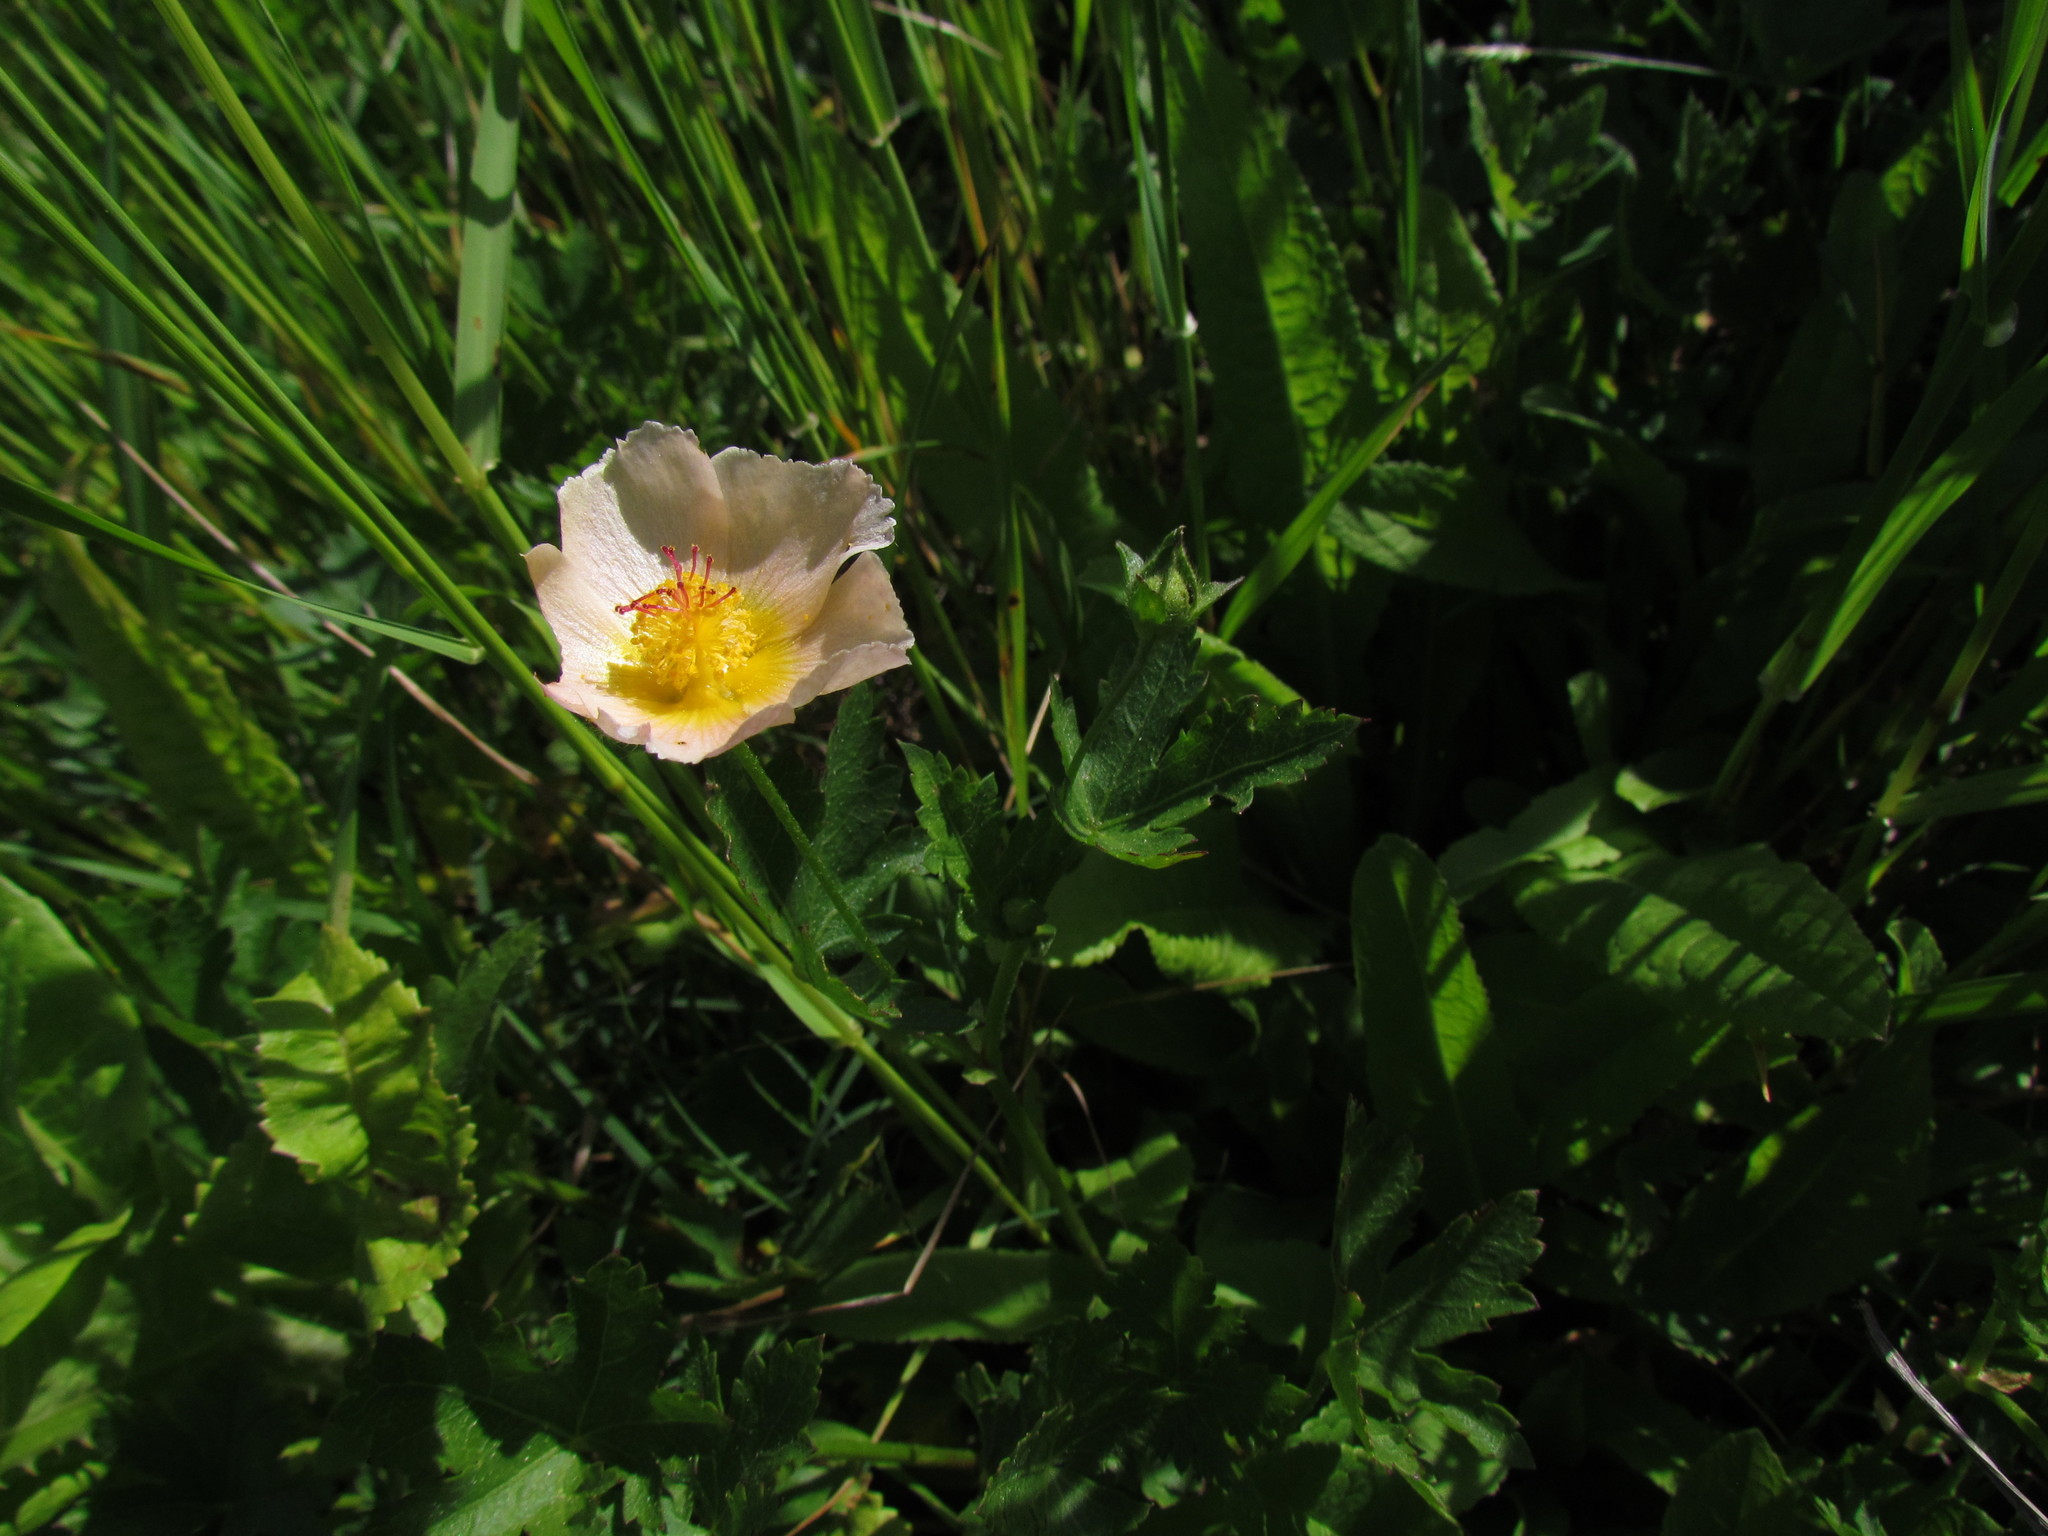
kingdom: Plantae
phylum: Tracheophyta
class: Magnoliopsida
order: Malvales
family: Malvaceae
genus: Modiolastrum
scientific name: Modiolastrum malvifolium
